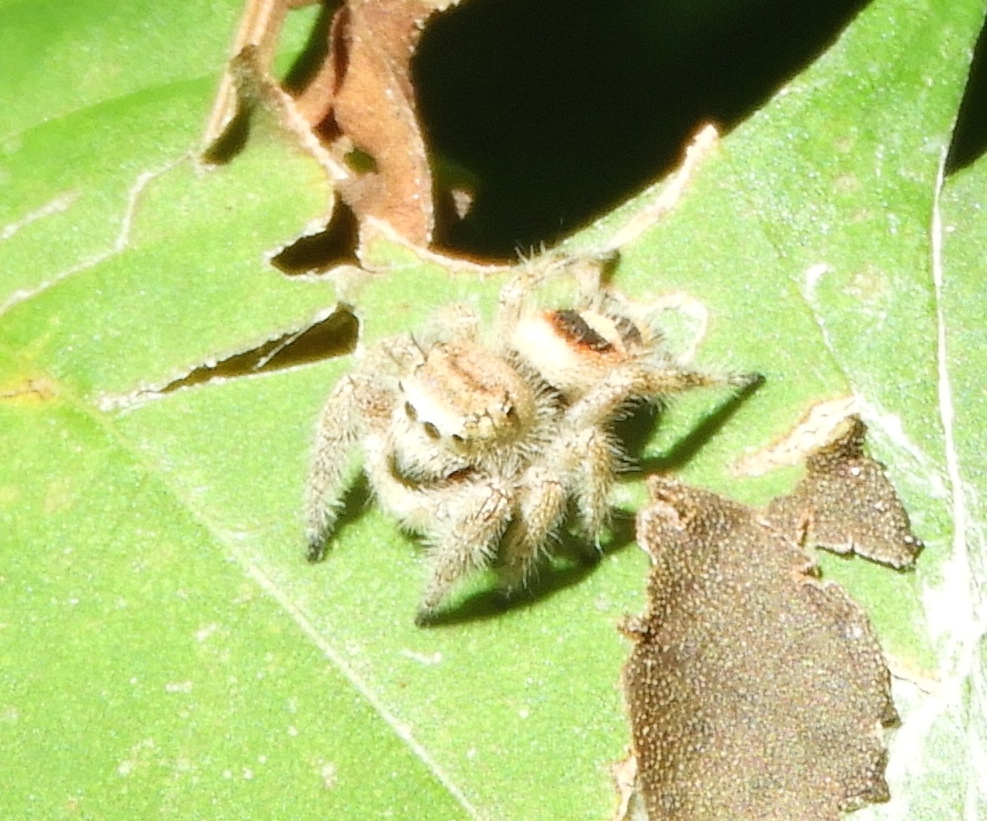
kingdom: Animalia
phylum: Arthropoda
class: Arachnida
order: Araneae
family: Salticidae
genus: Phidippus
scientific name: Phidippus pacosauritus
